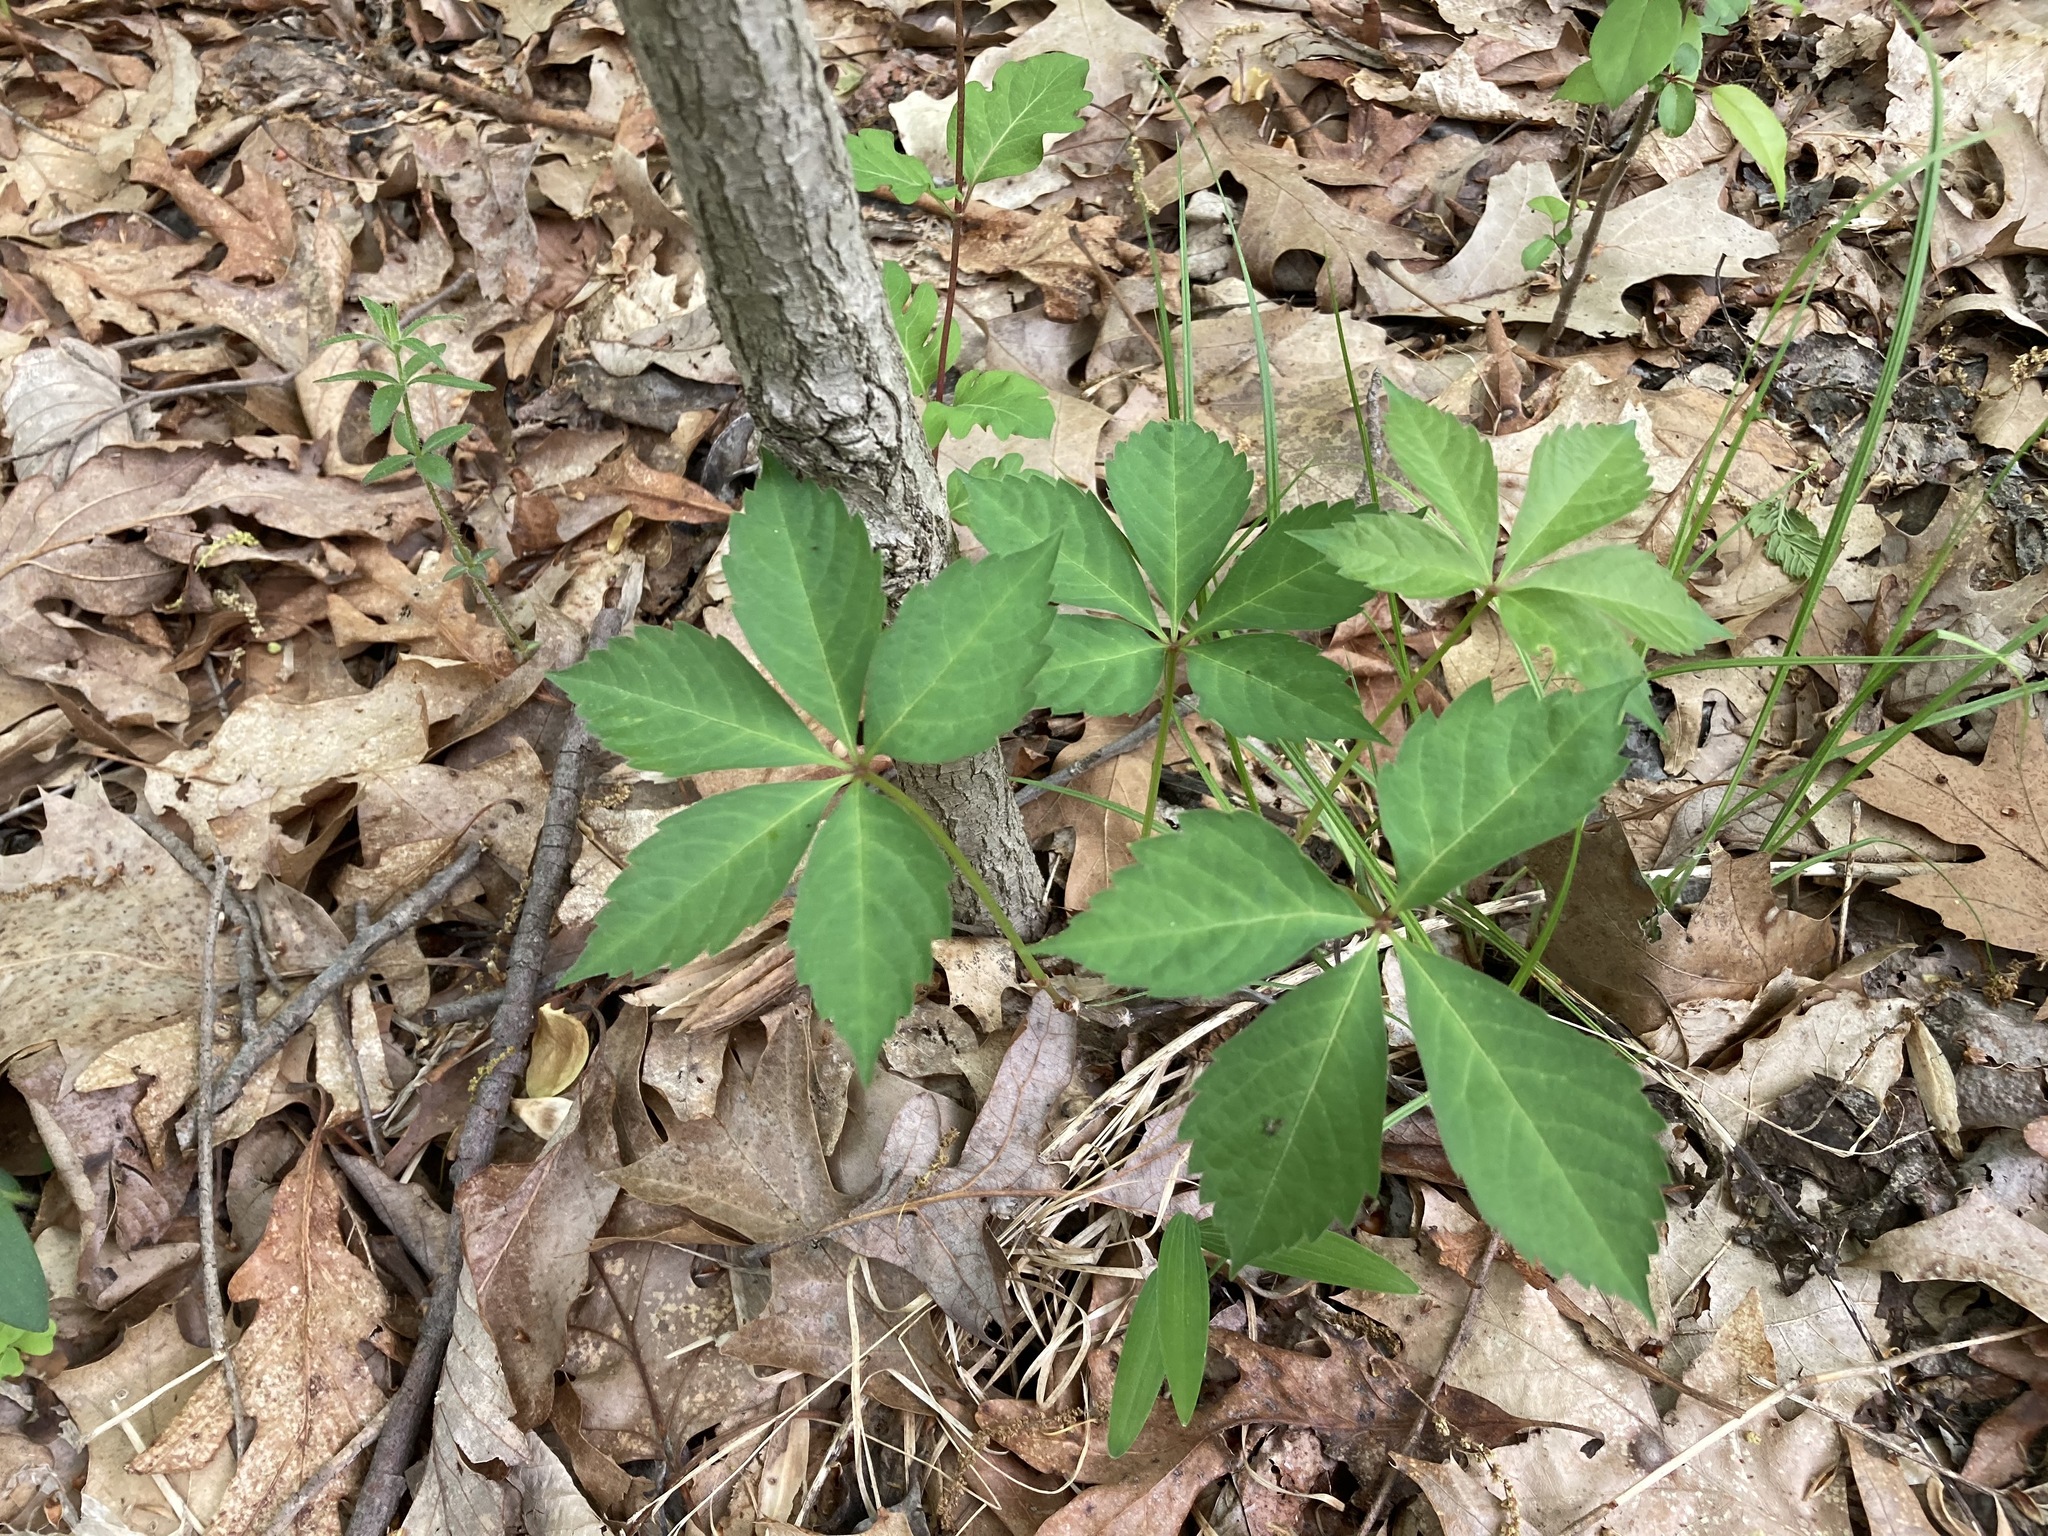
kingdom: Plantae
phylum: Tracheophyta
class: Magnoliopsida
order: Vitales
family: Vitaceae
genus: Parthenocissus
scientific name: Parthenocissus quinquefolia
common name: Virginia-creeper
